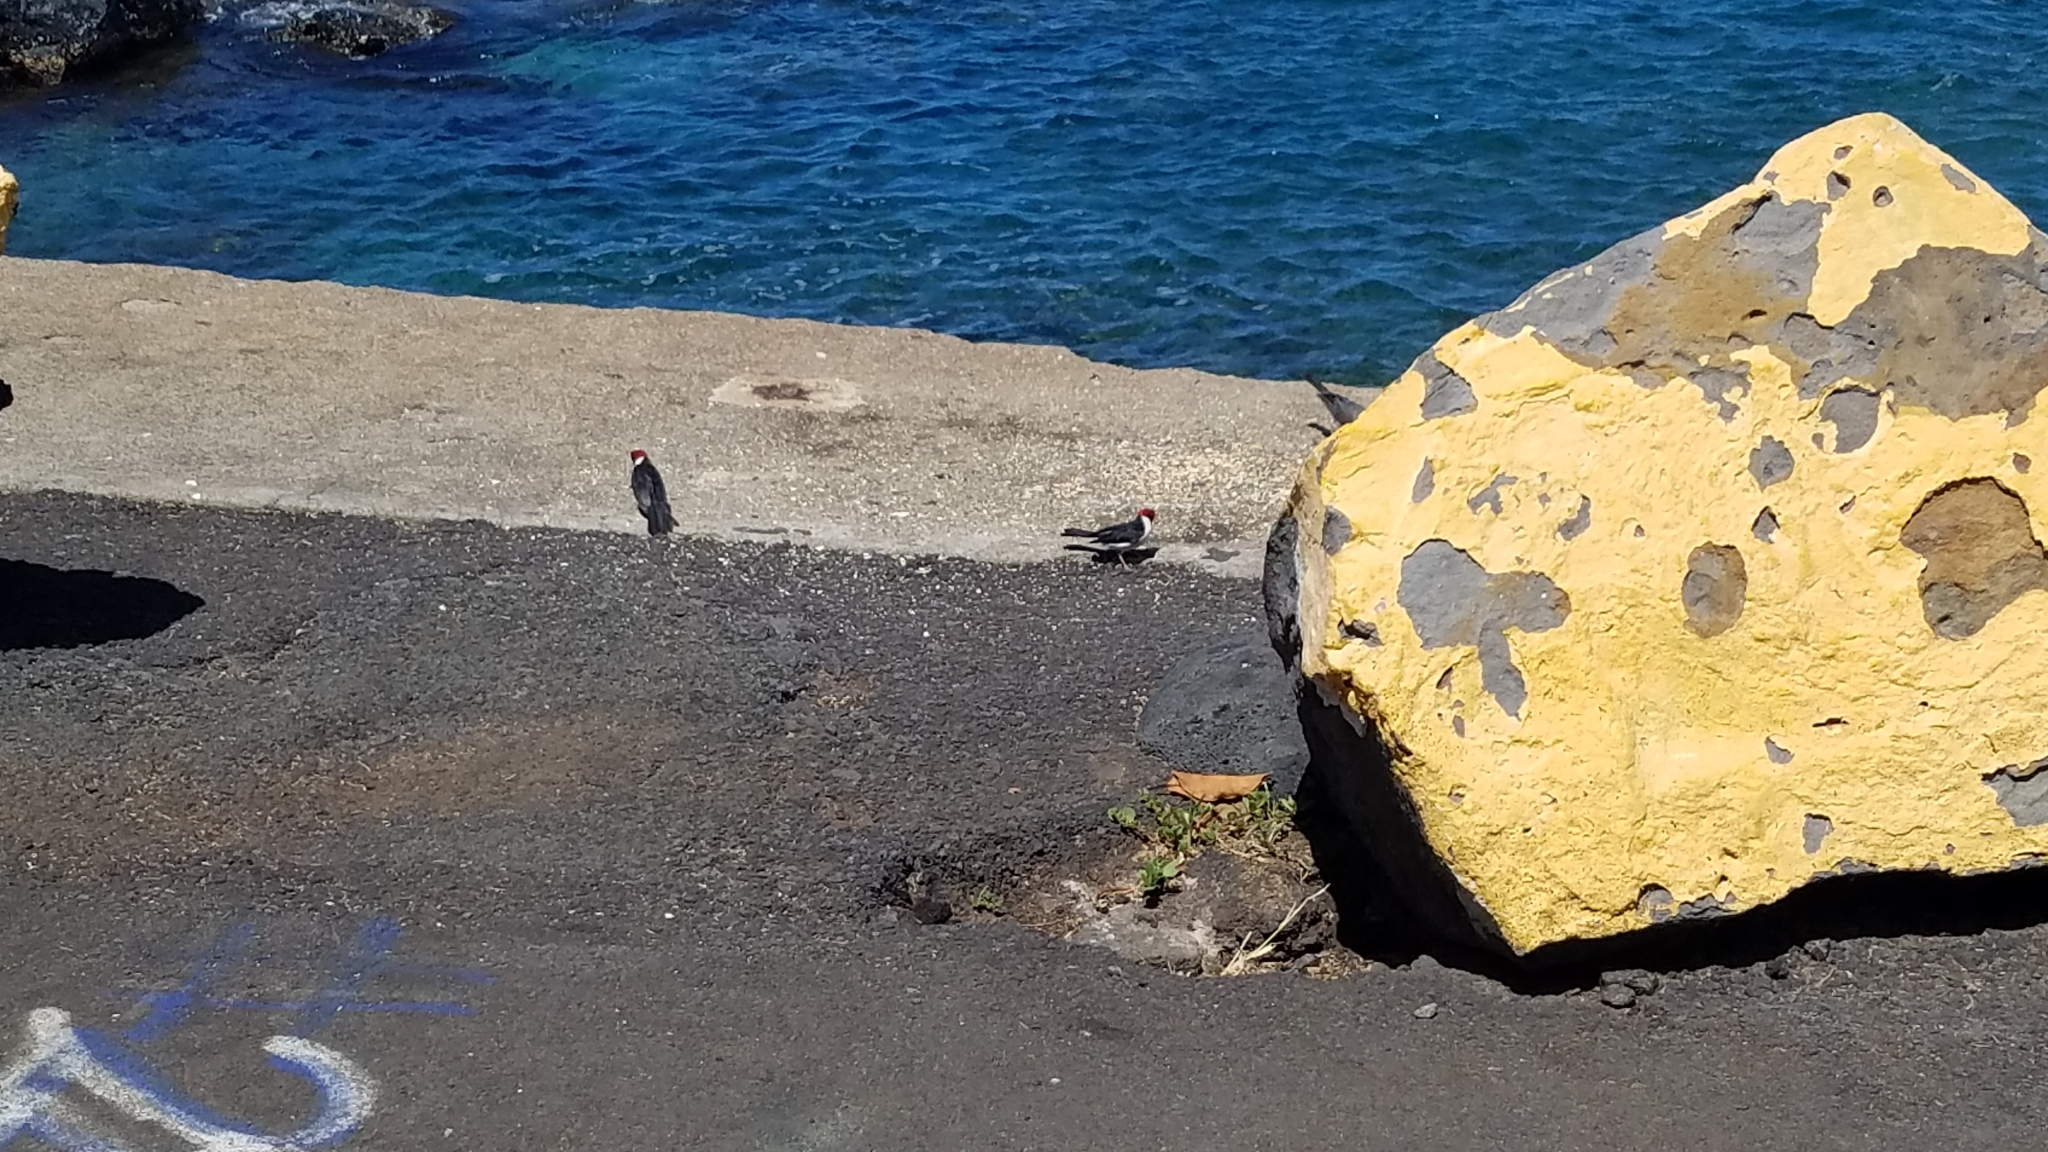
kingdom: Animalia
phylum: Chordata
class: Aves
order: Passeriformes
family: Thraupidae
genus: Paroaria
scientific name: Paroaria capitata
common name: Yellow-billed cardinal
